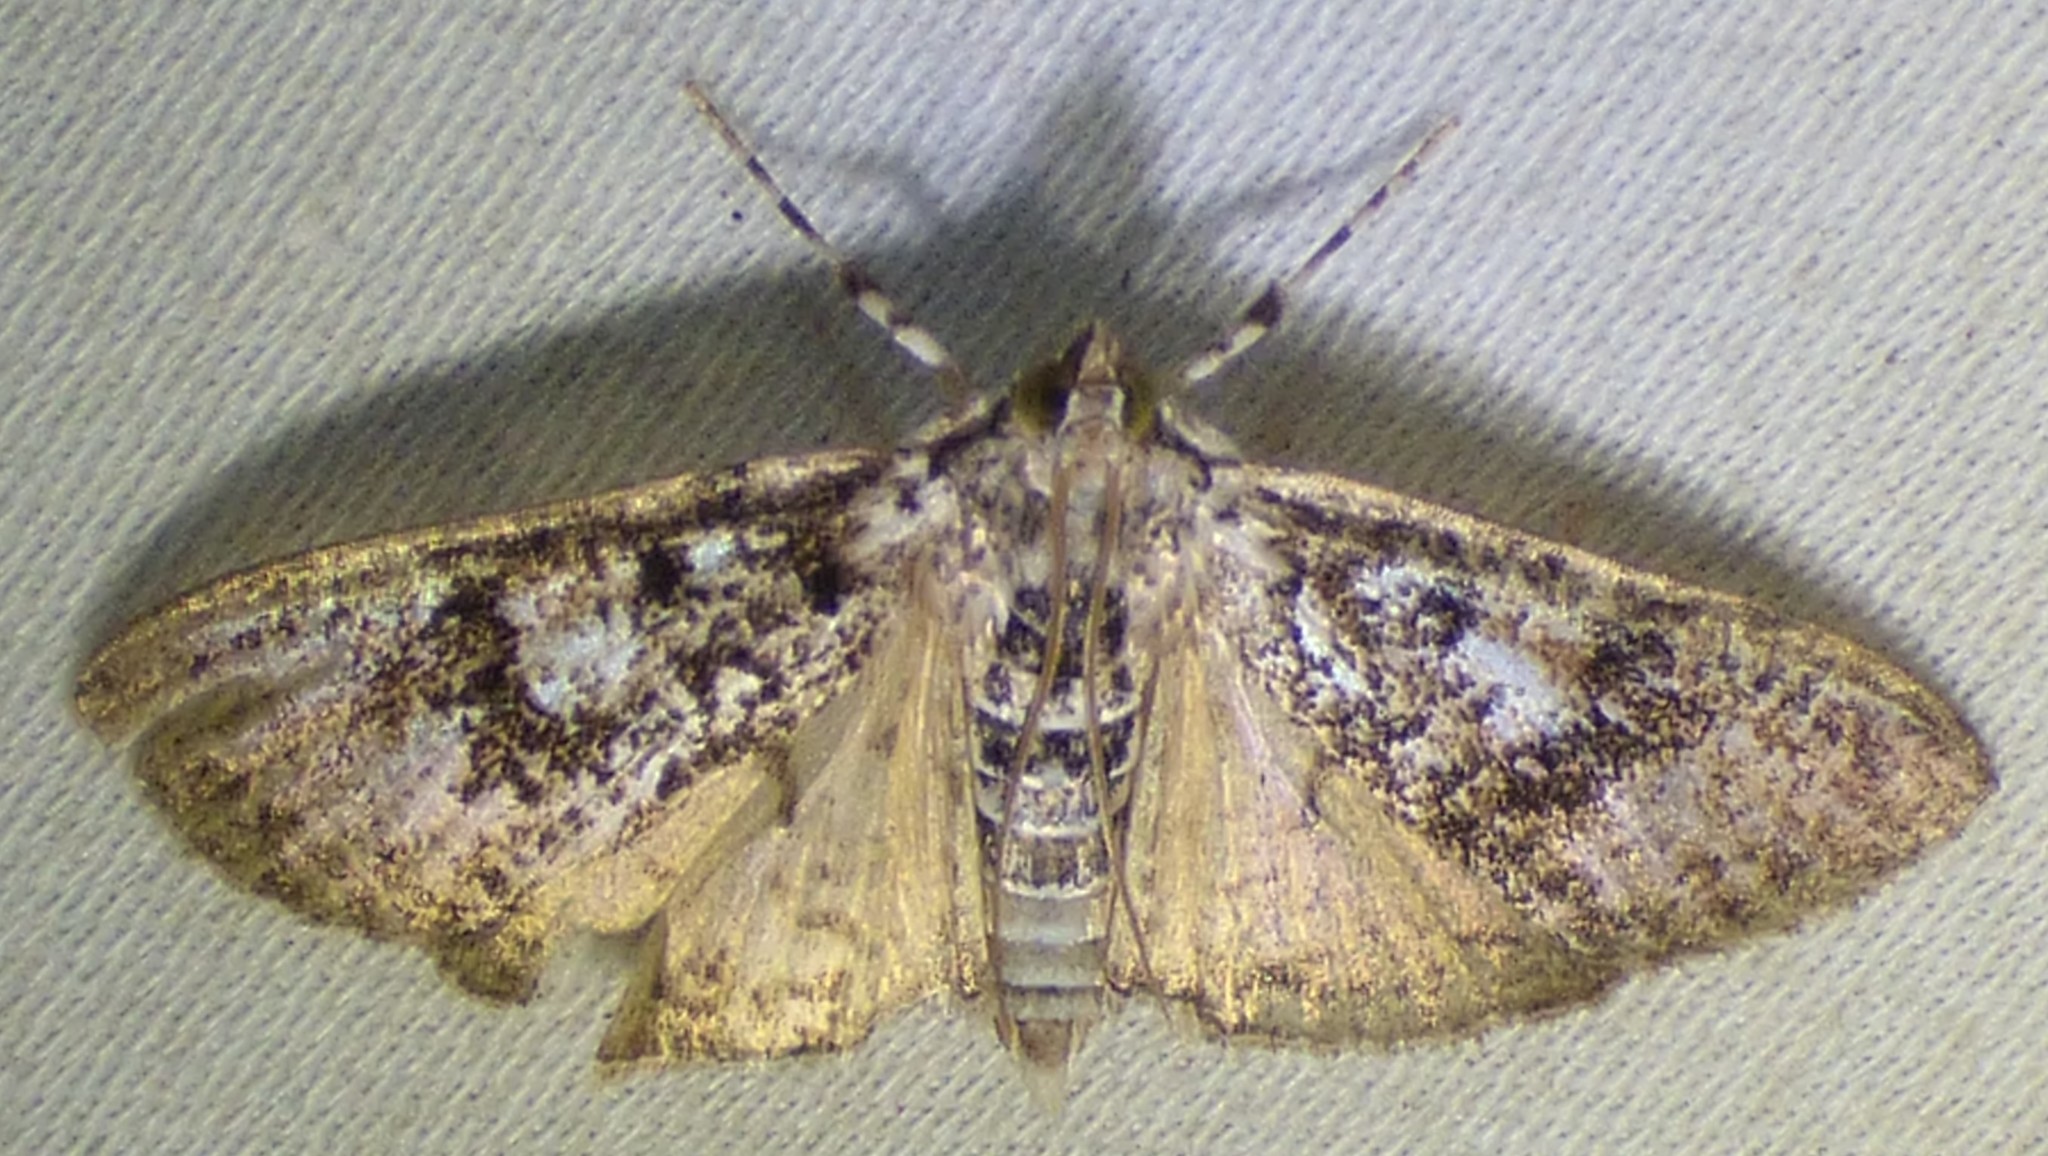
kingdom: Animalia
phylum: Arthropoda
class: Insecta
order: Lepidoptera
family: Crambidae
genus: Palpita
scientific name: Palpita magniferalis
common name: Splendid palpita moth
